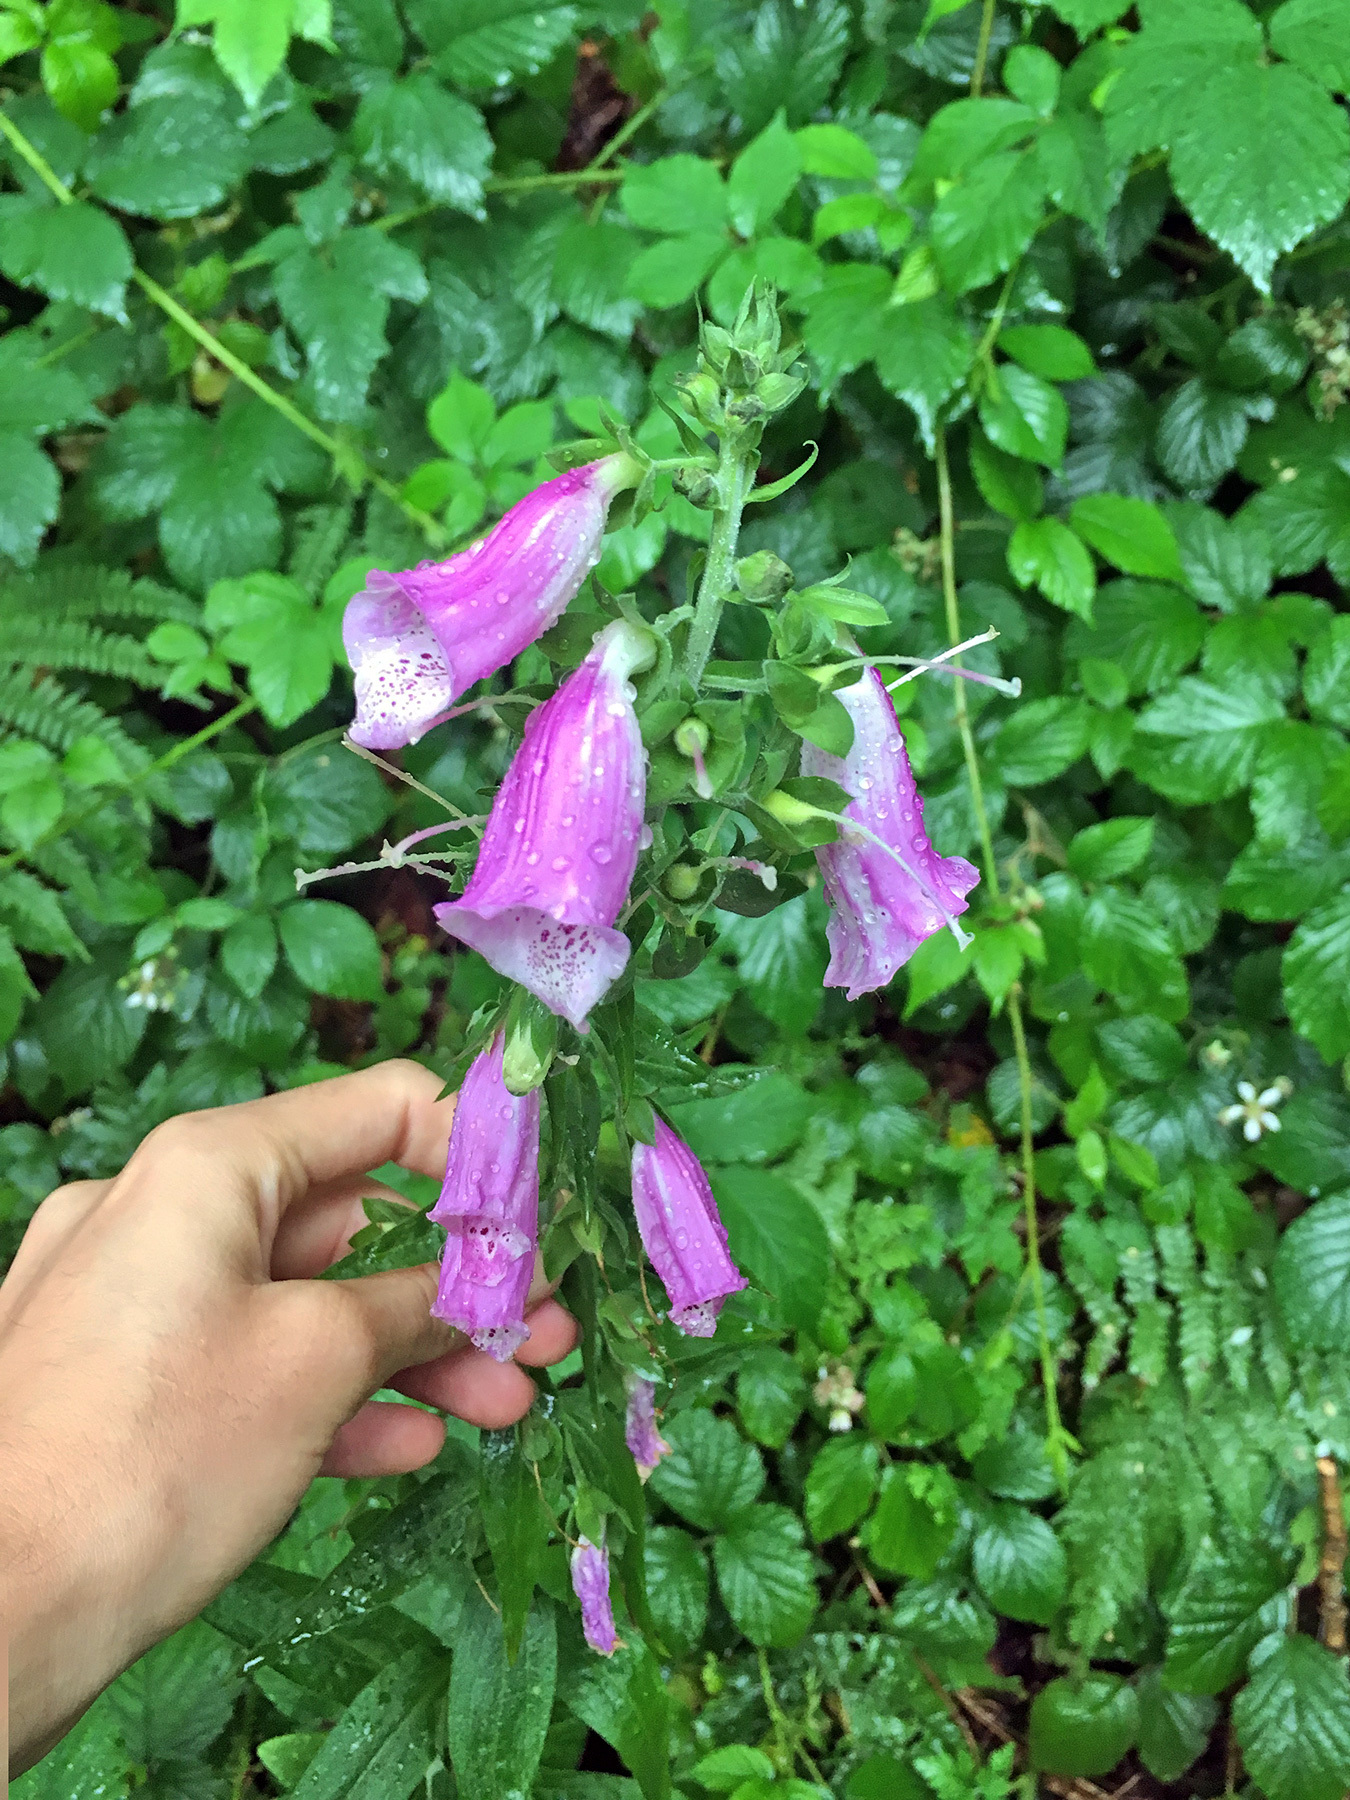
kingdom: Plantae
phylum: Tracheophyta
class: Magnoliopsida
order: Lamiales
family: Plantaginaceae
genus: Digitalis
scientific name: Digitalis purpurea
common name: Foxglove
